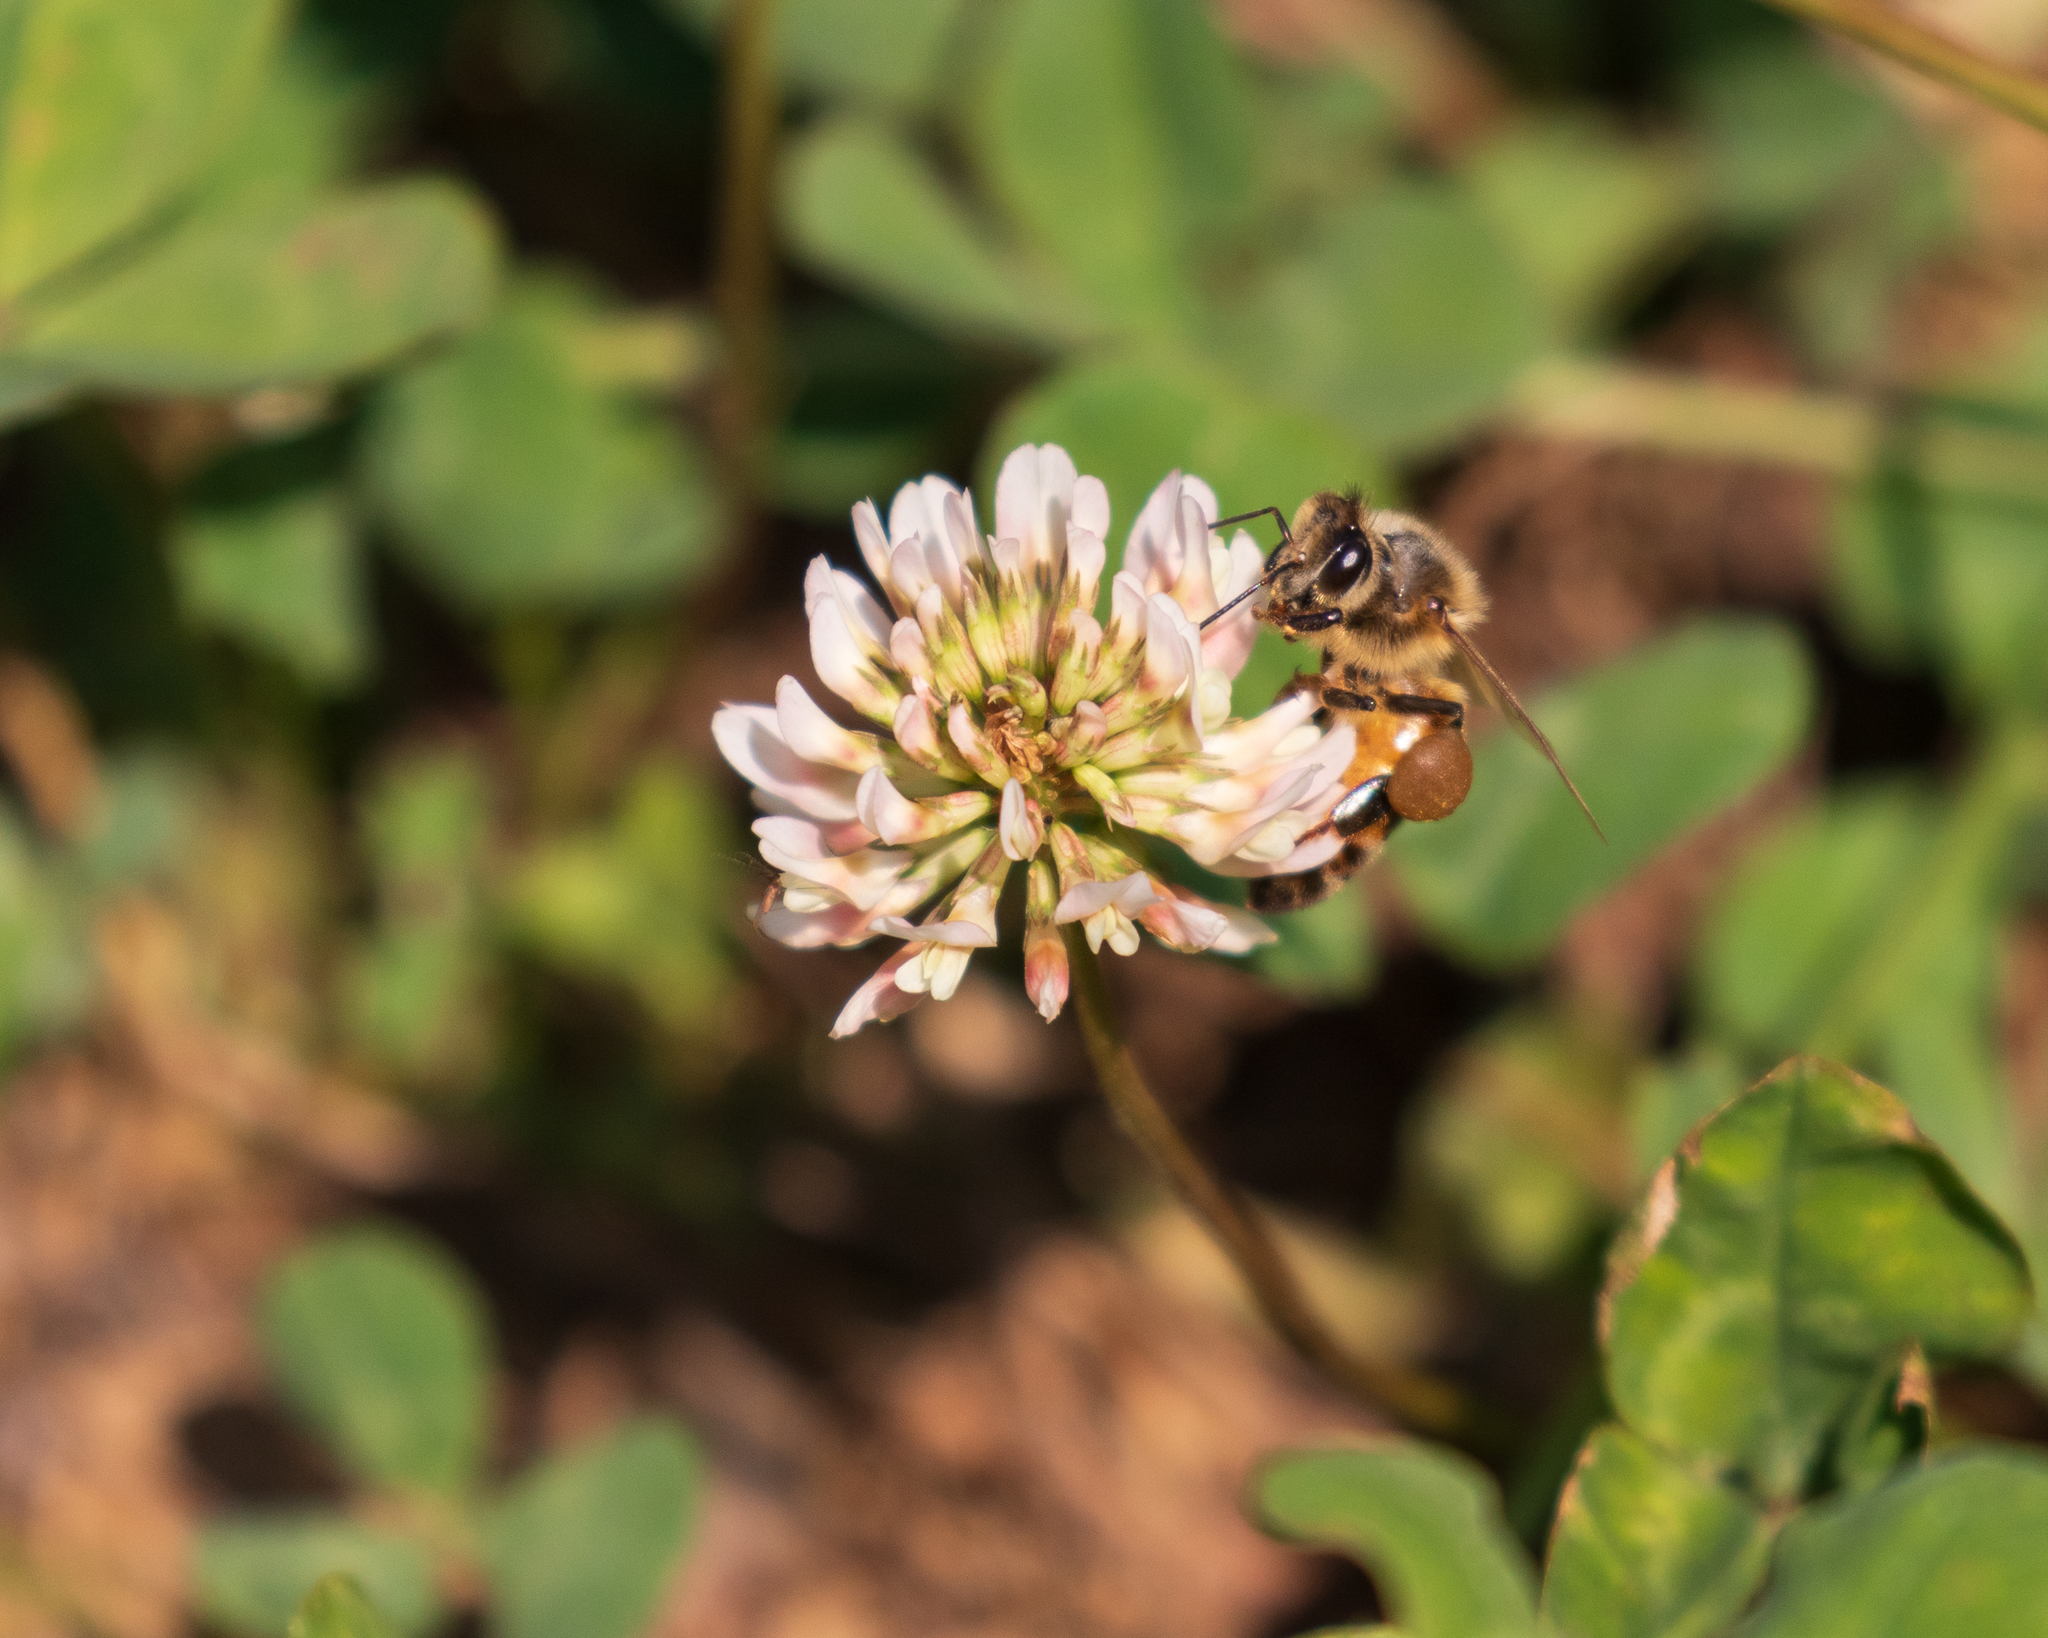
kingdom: Animalia
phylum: Arthropoda
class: Insecta
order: Hymenoptera
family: Apidae
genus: Apis
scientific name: Apis mellifera
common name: Honey bee
